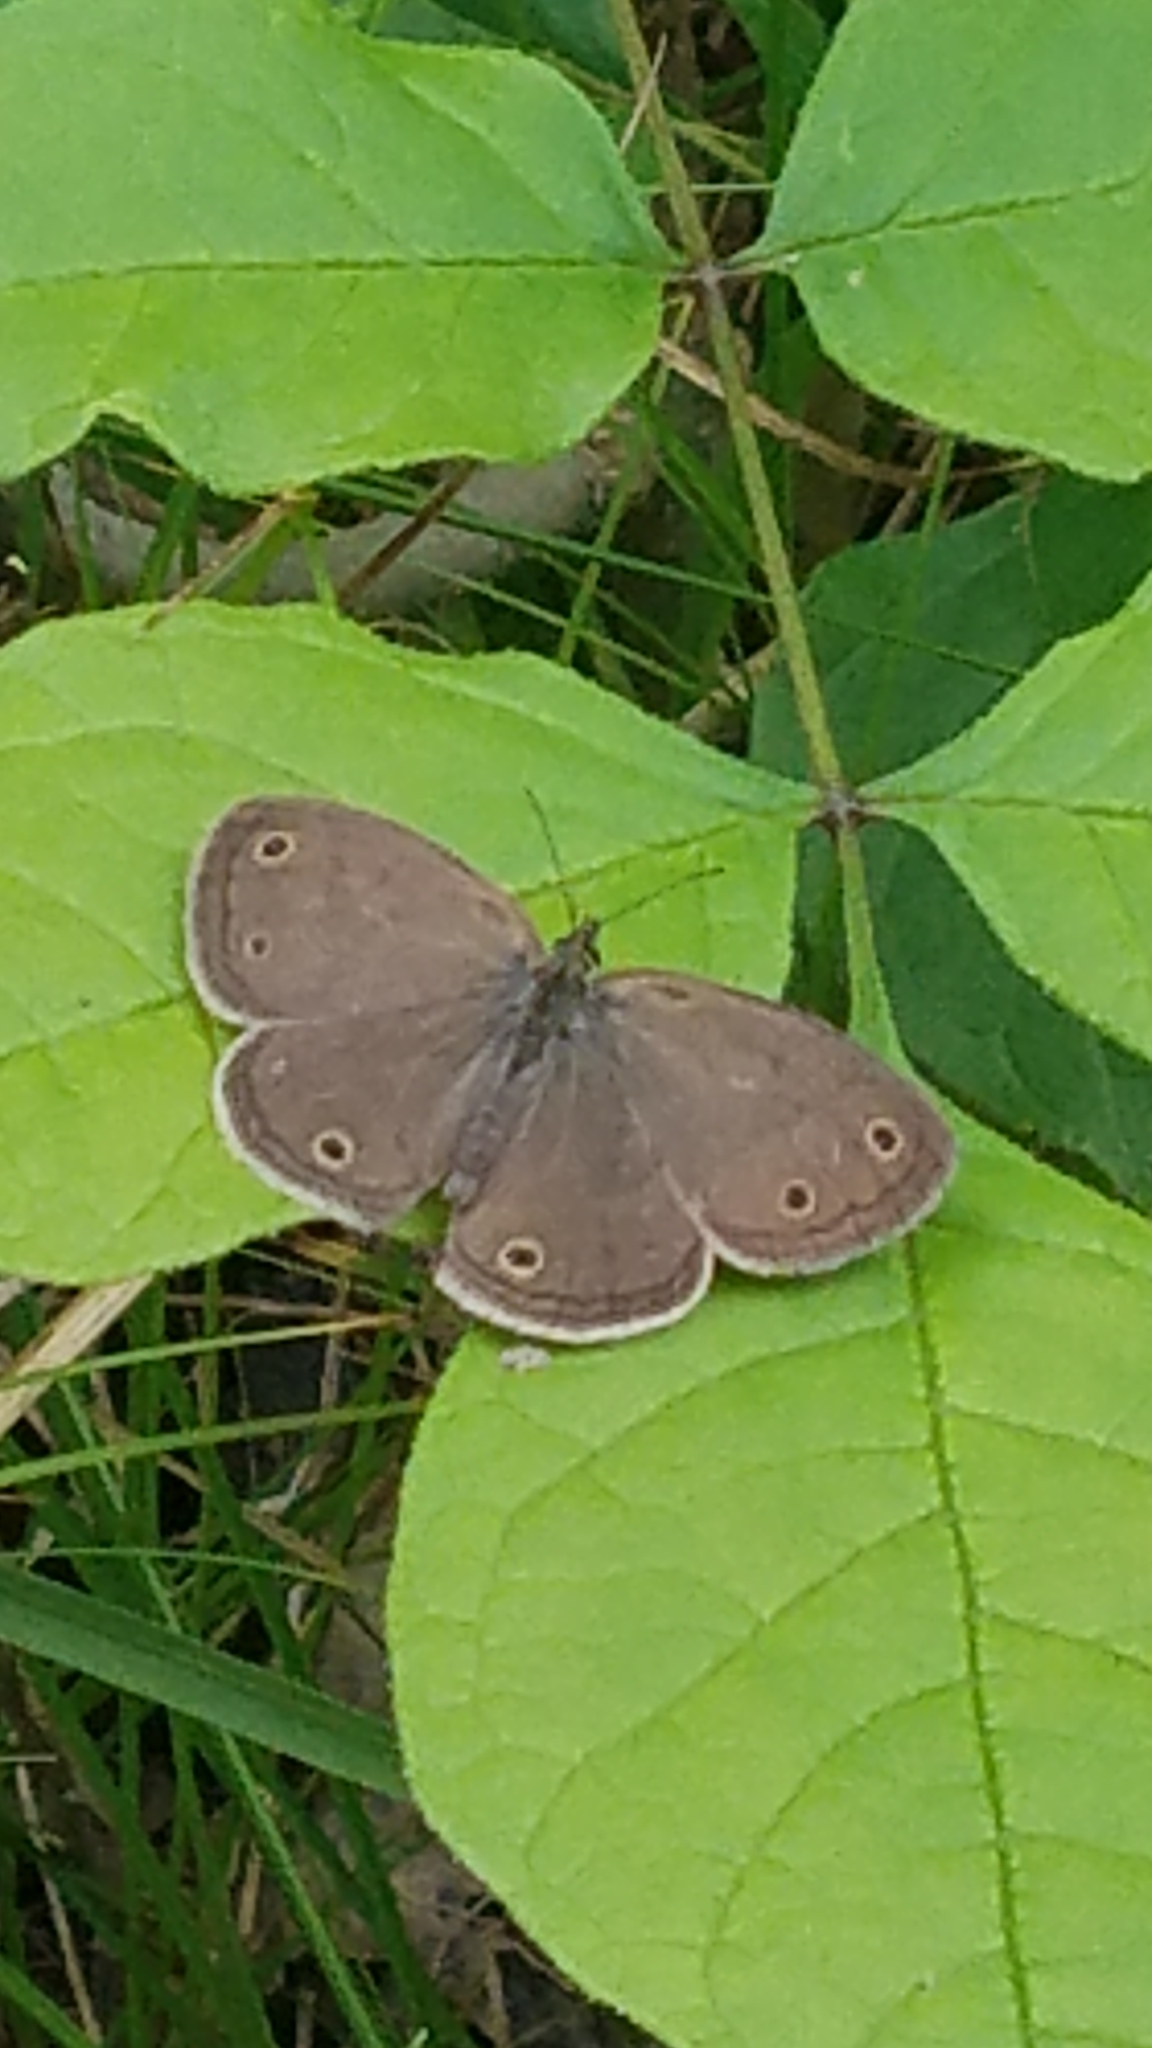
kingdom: Animalia
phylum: Arthropoda
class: Insecta
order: Lepidoptera
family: Nymphalidae
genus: Euptychia
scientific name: Euptychia cymela
